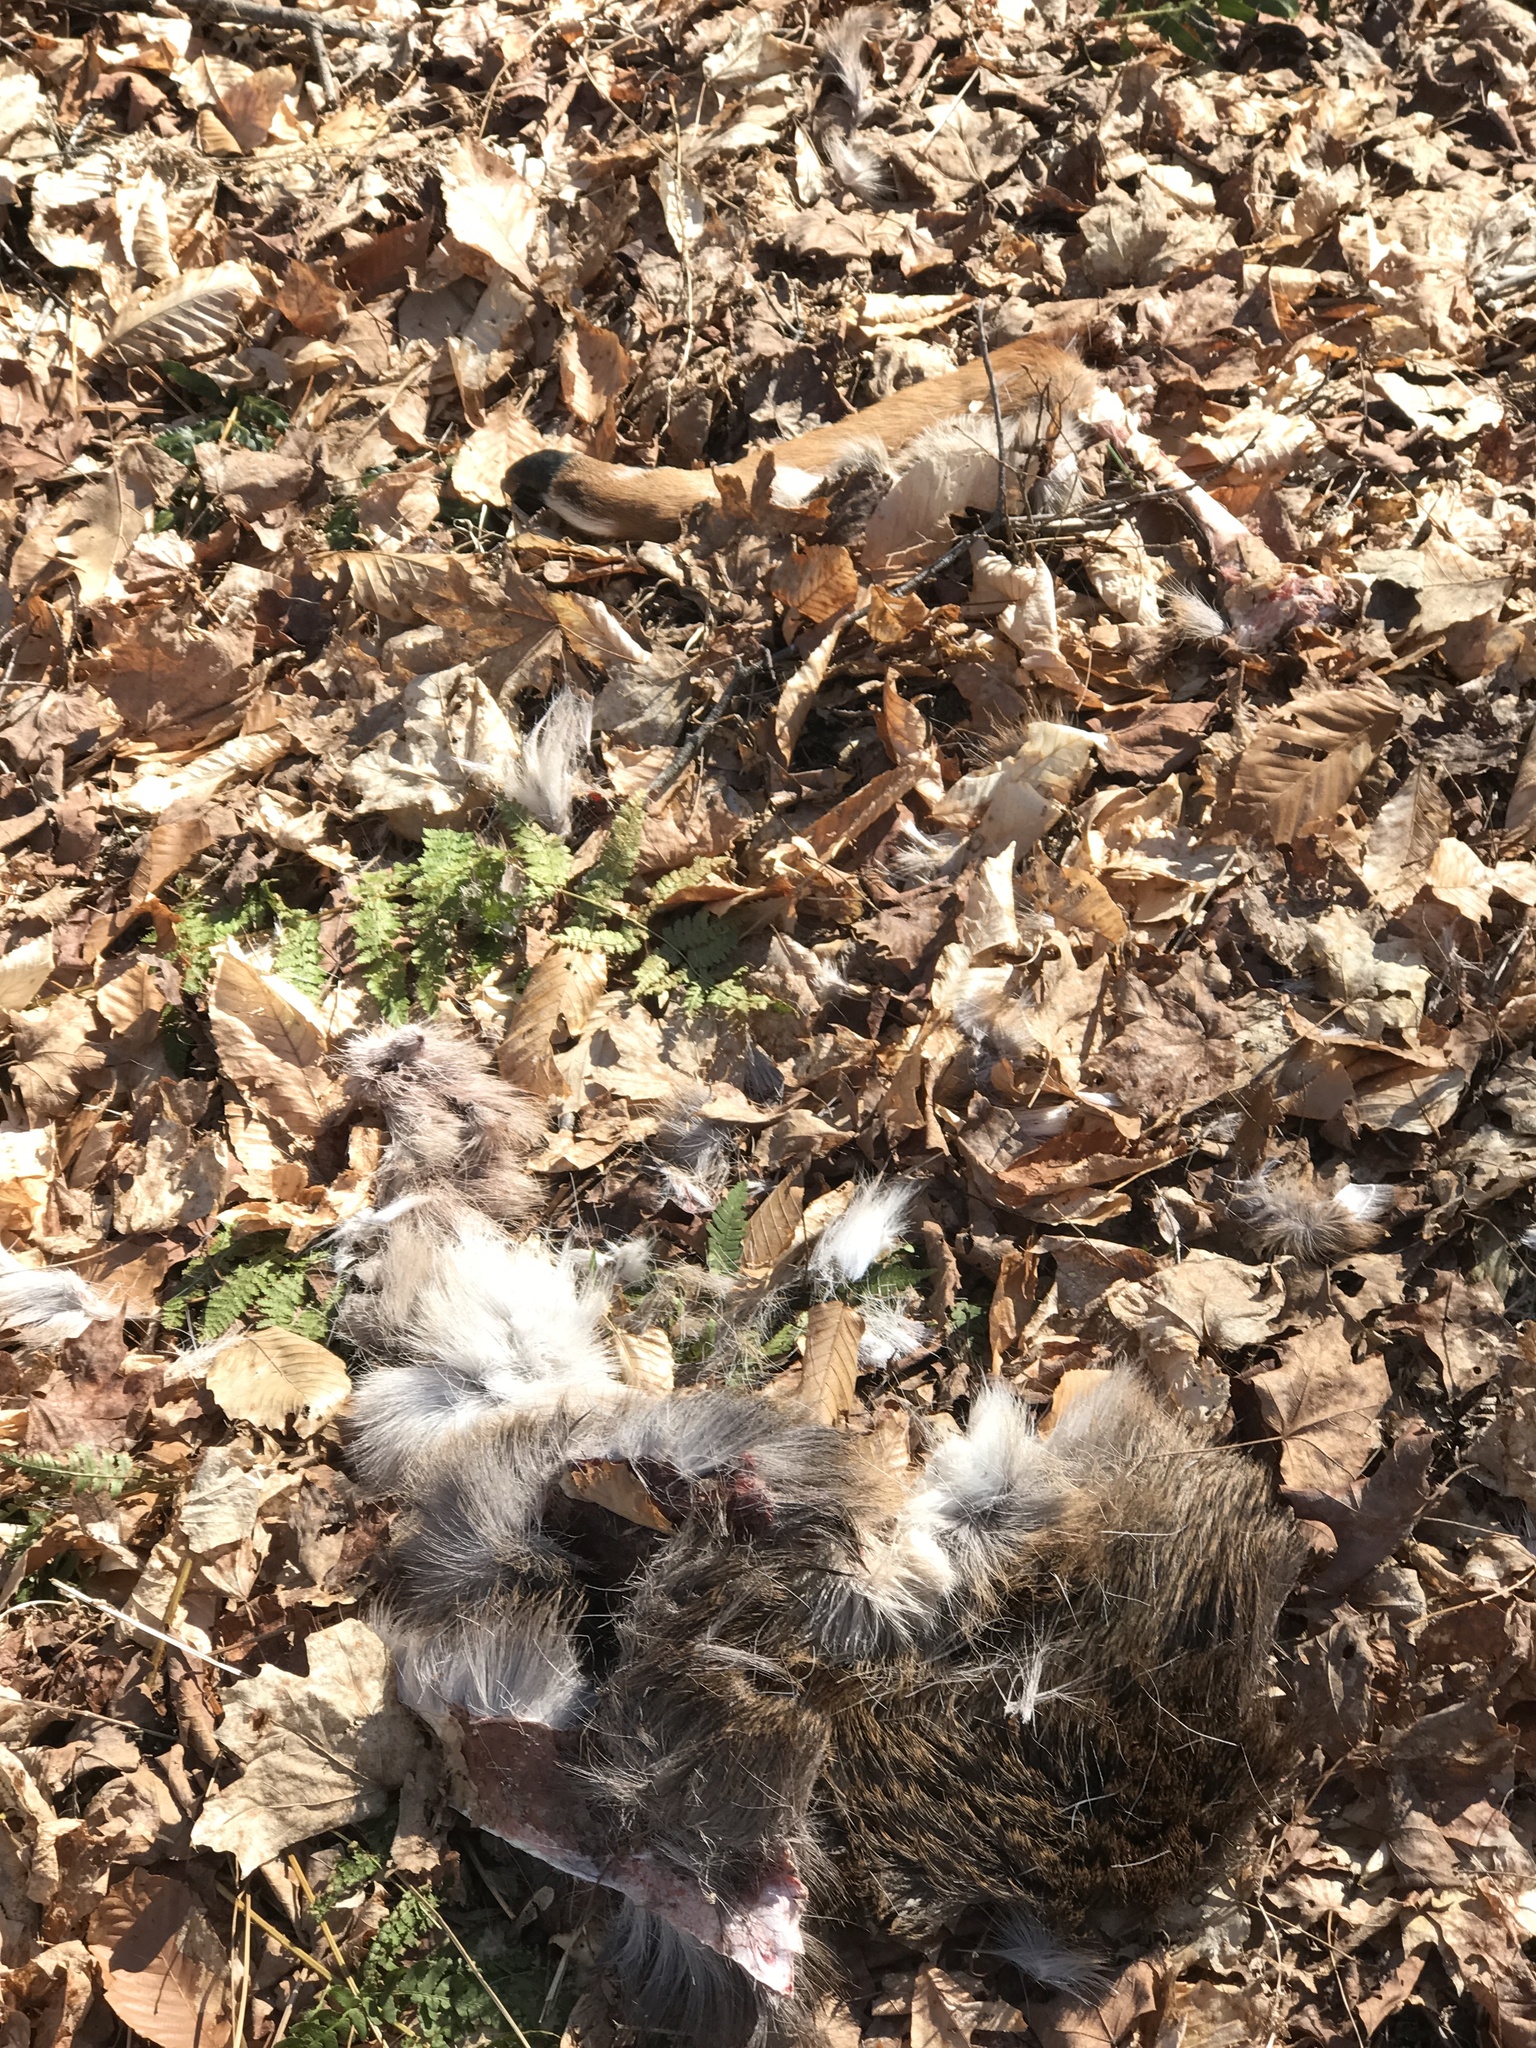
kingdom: Animalia
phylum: Chordata
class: Mammalia
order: Artiodactyla
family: Cervidae
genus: Odocoileus
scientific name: Odocoileus virginianus
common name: White-tailed deer
